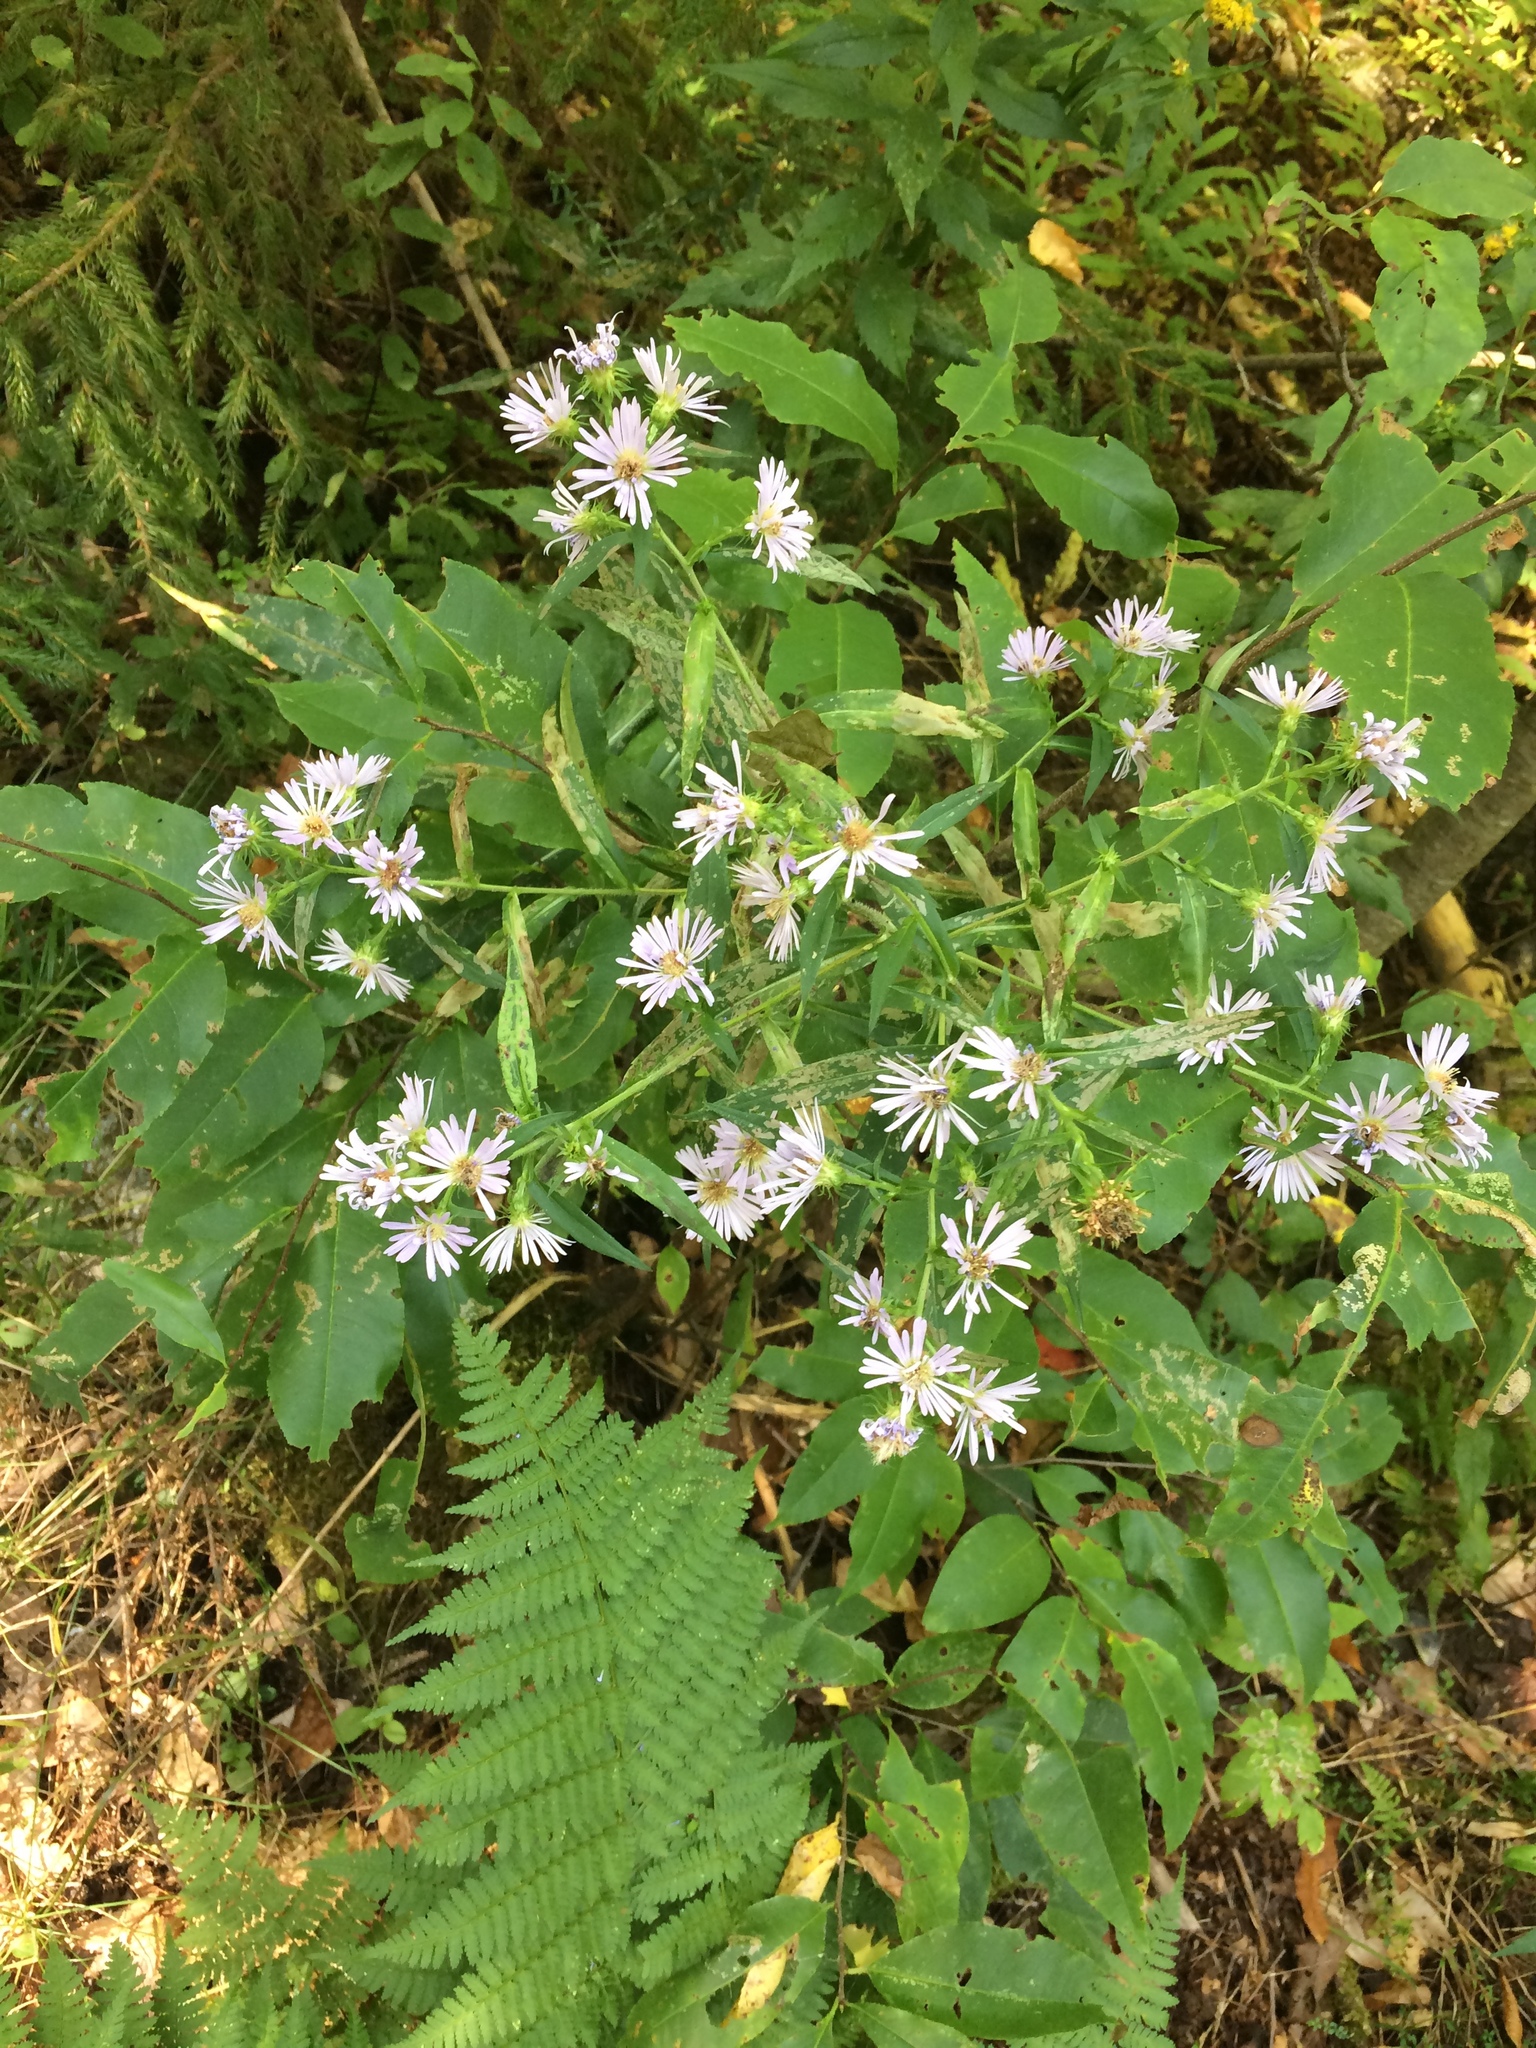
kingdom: Plantae
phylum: Tracheophyta
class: Magnoliopsida
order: Asterales
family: Asteraceae
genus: Symphyotrichum
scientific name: Symphyotrichum puniceum
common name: Bog aster
